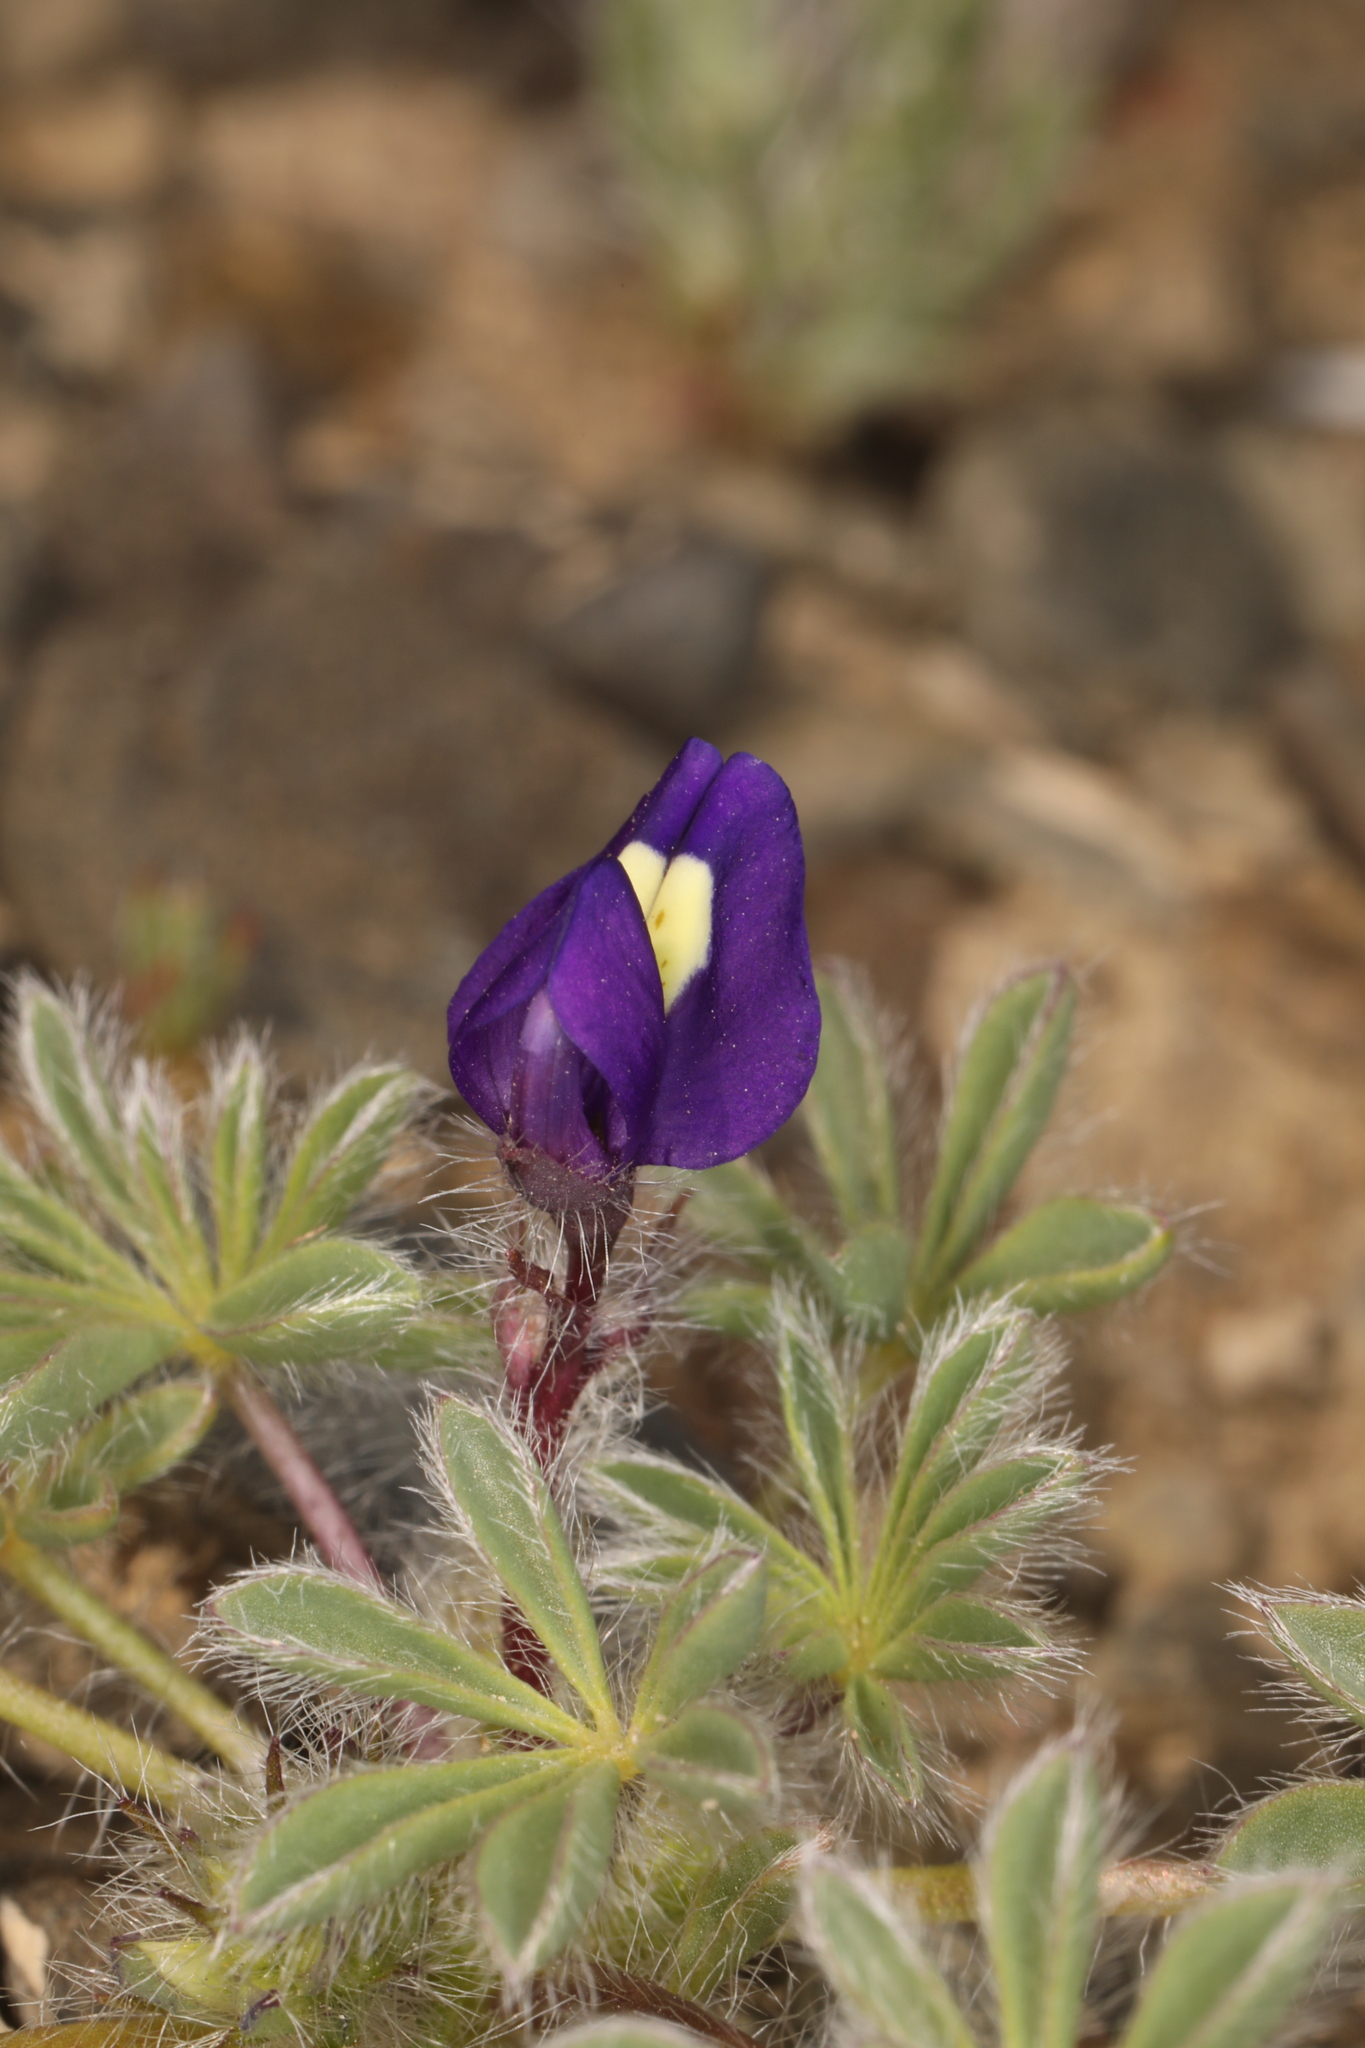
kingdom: Plantae
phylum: Tracheophyta
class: Magnoliopsida
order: Fabales
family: Fabaceae
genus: Lupinus
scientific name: Lupinus flavoculatus
